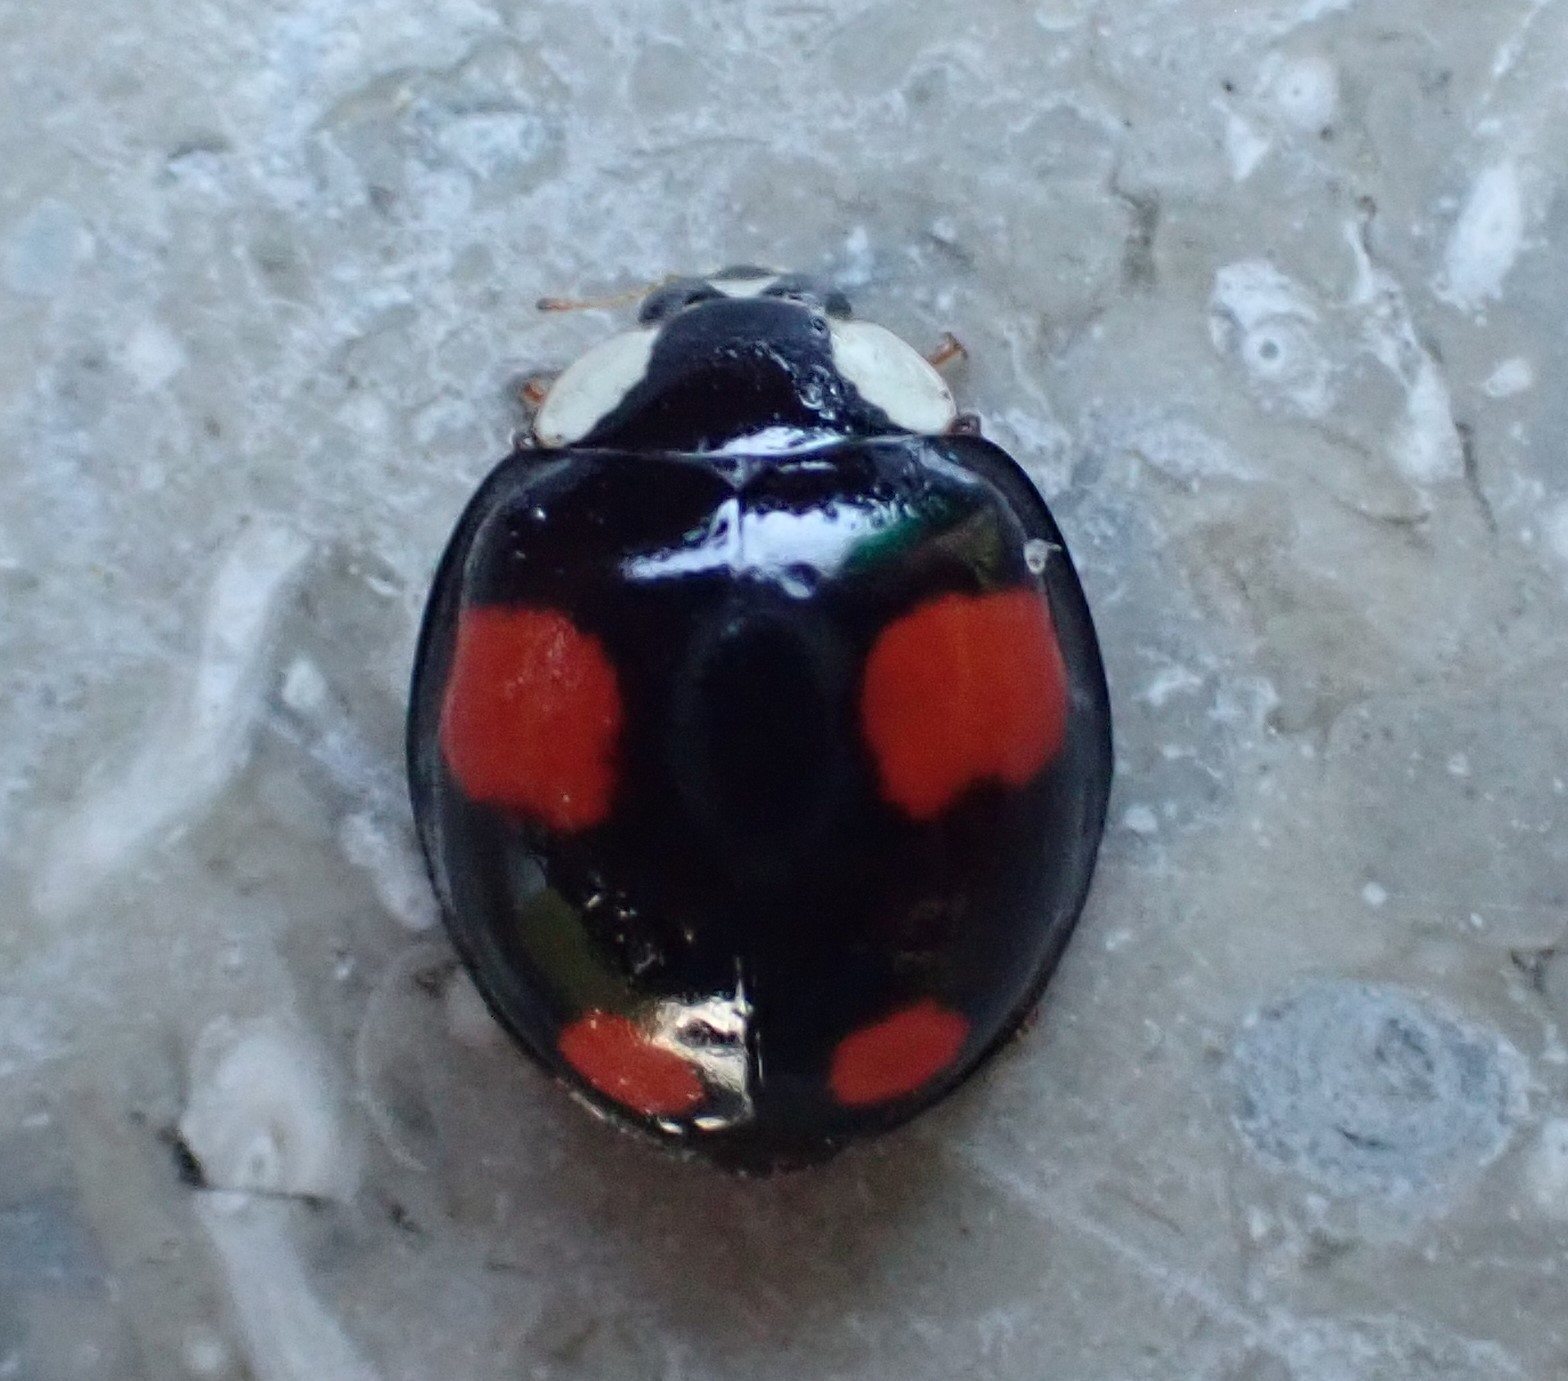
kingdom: Animalia
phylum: Arthropoda
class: Insecta
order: Coleoptera
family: Coccinellidae
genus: Harmonia
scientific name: Harmonia axyridis
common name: Harlequin ladybird
